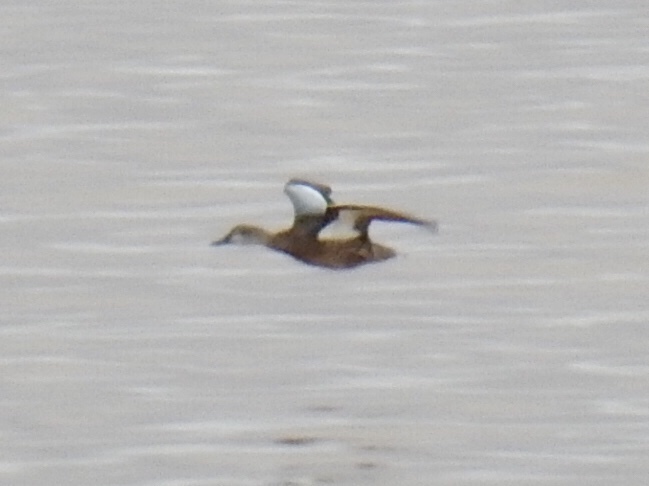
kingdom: Animalia
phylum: Chordata
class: Aves
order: Anseriformes
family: Anatidae
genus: Spatula
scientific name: Spatula discors
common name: Blue-winged teal
